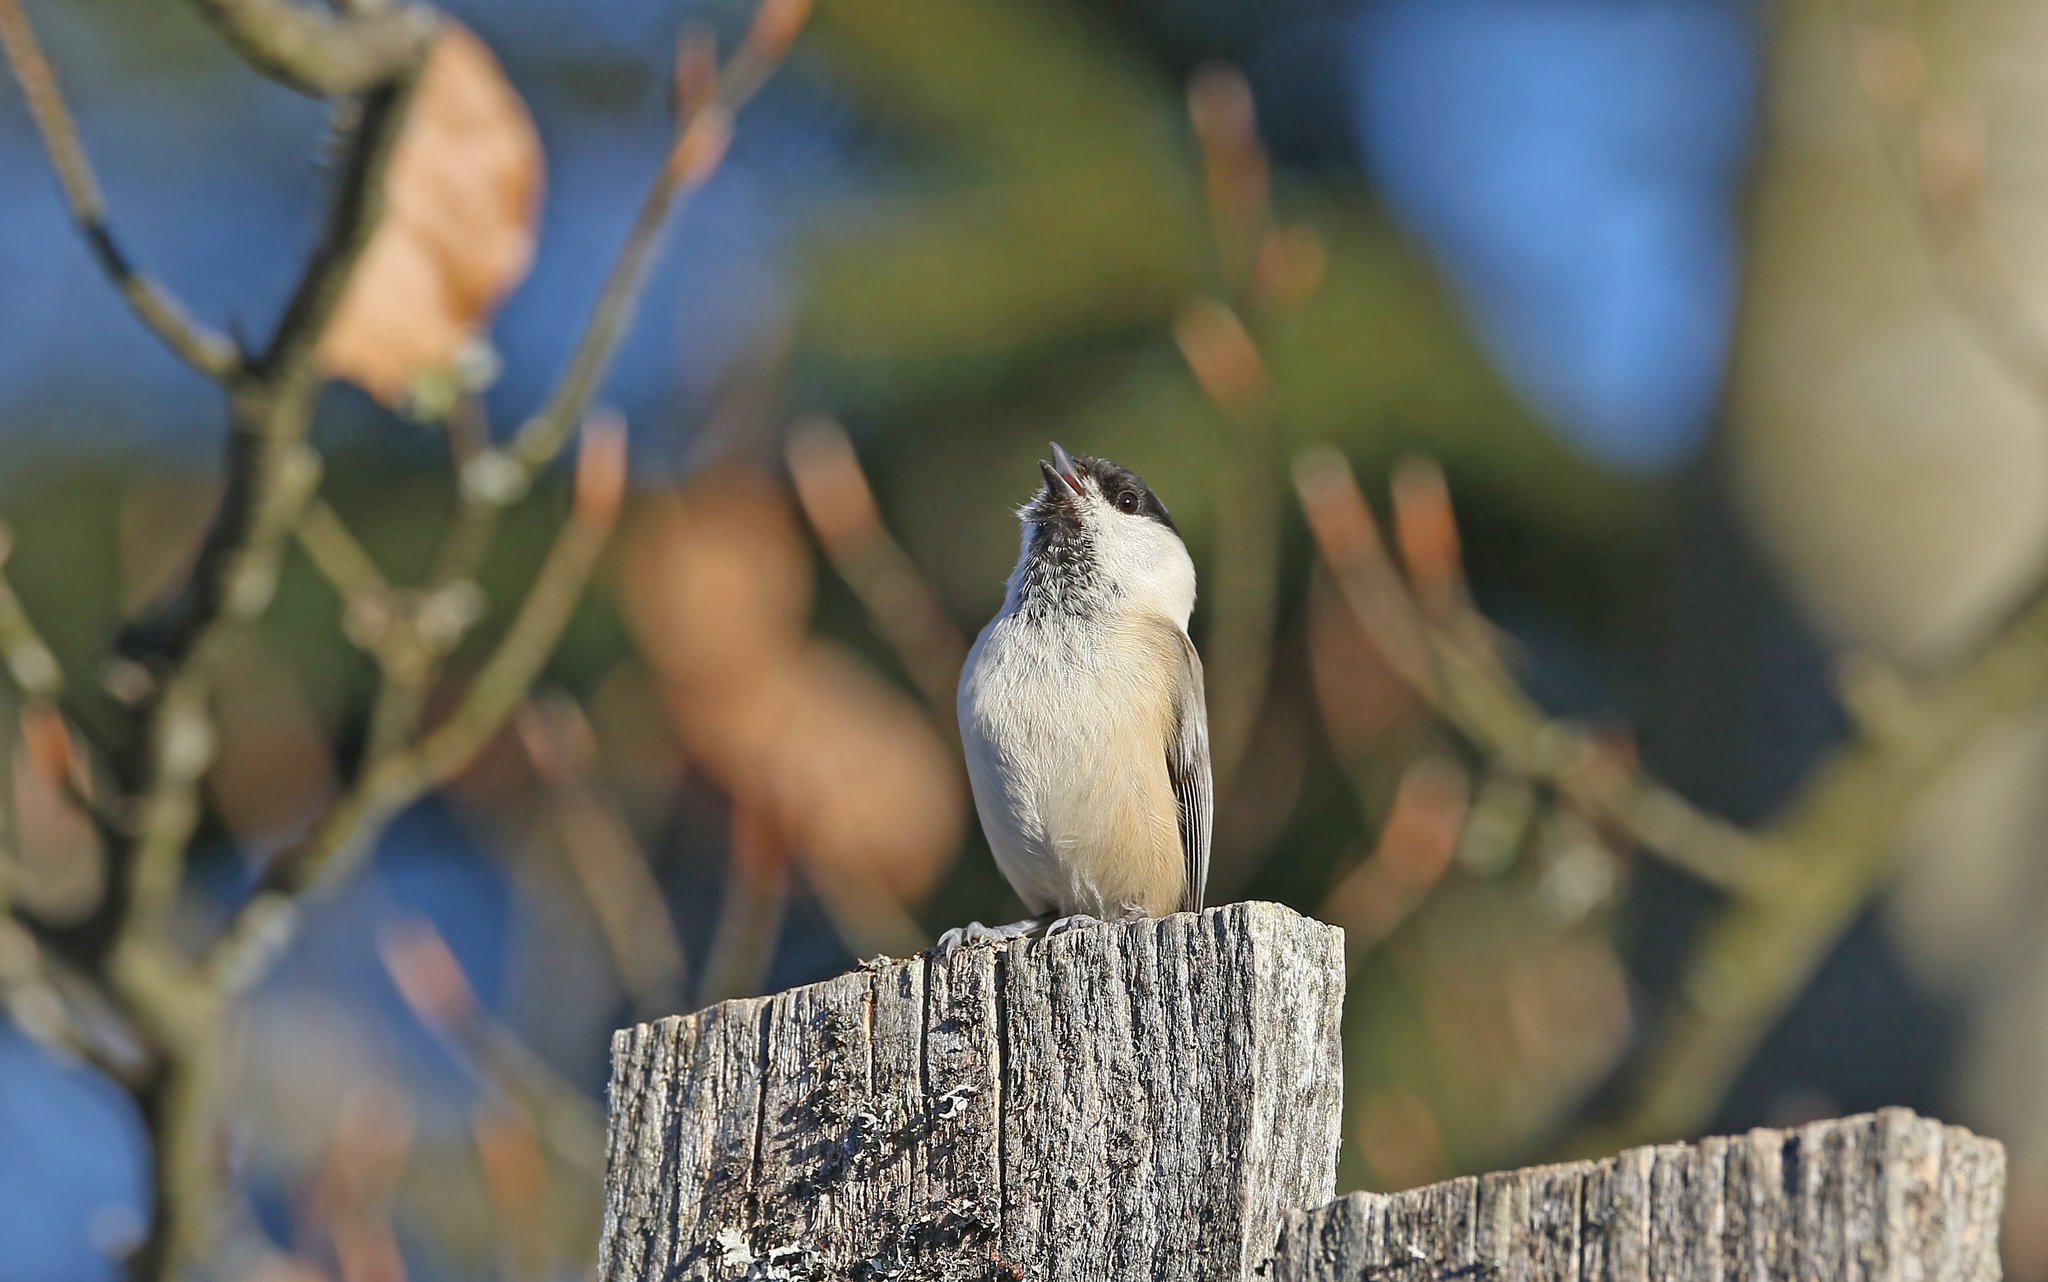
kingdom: Animalia
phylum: Chordata
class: Aves
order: Passeriformes
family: Paridae
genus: Poecile
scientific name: Poecile montanus
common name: Willow tit
